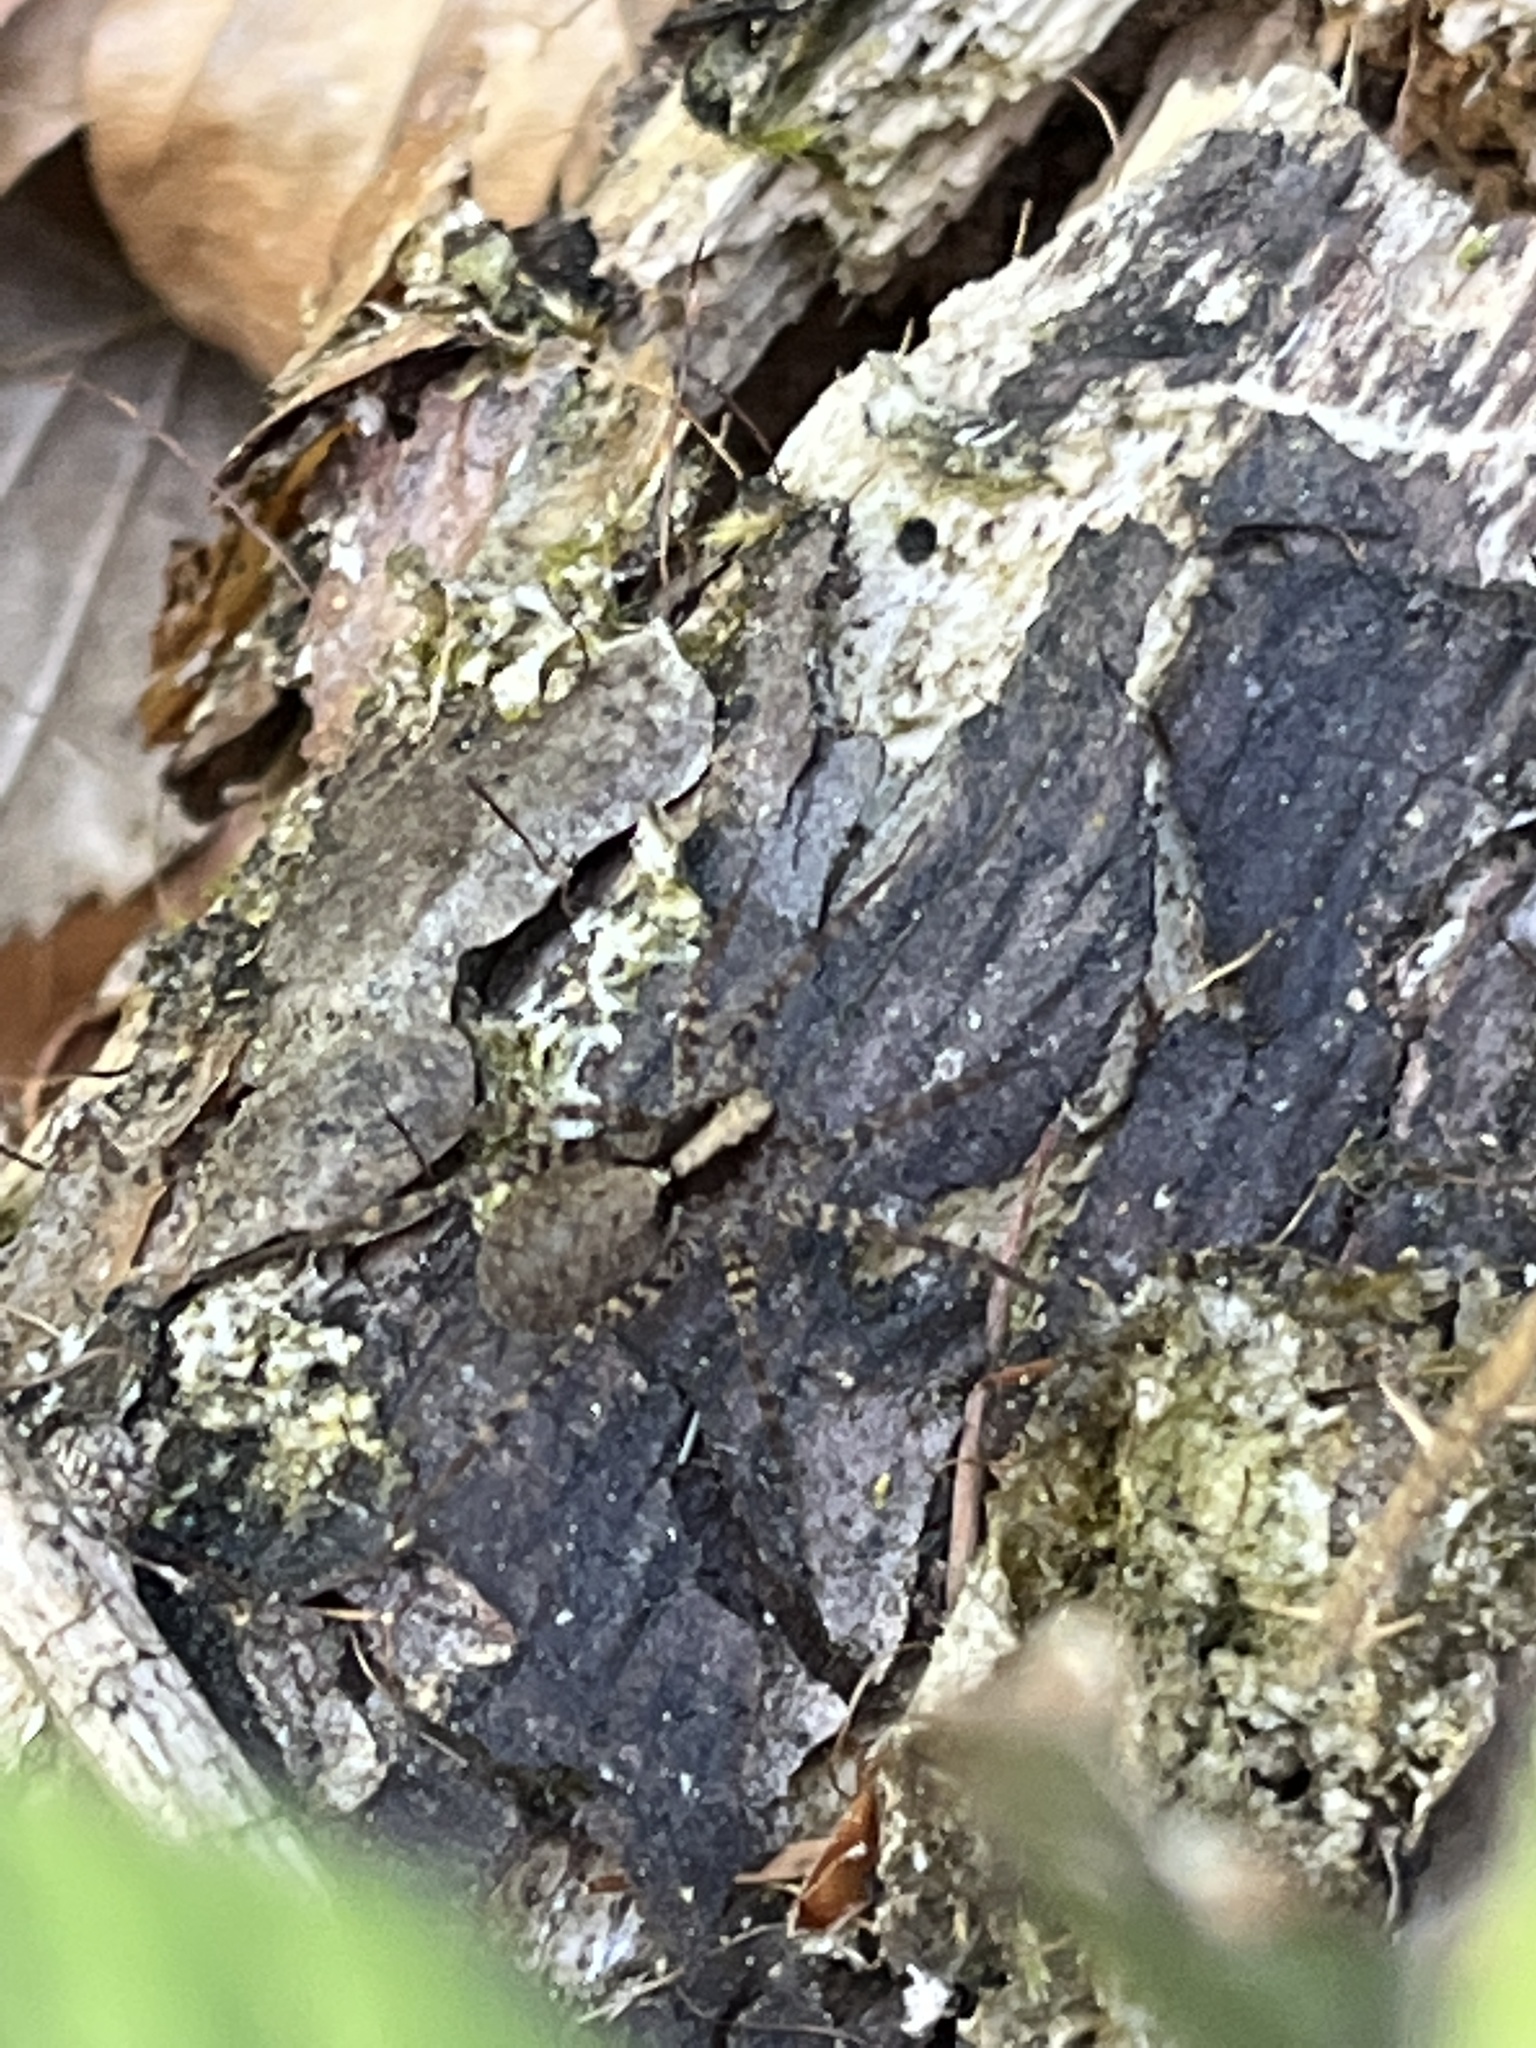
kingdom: Animalia
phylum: Arthropoda
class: Arachnida
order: Araneae
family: Lycosidae
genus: Pardosa
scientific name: Pardosa
